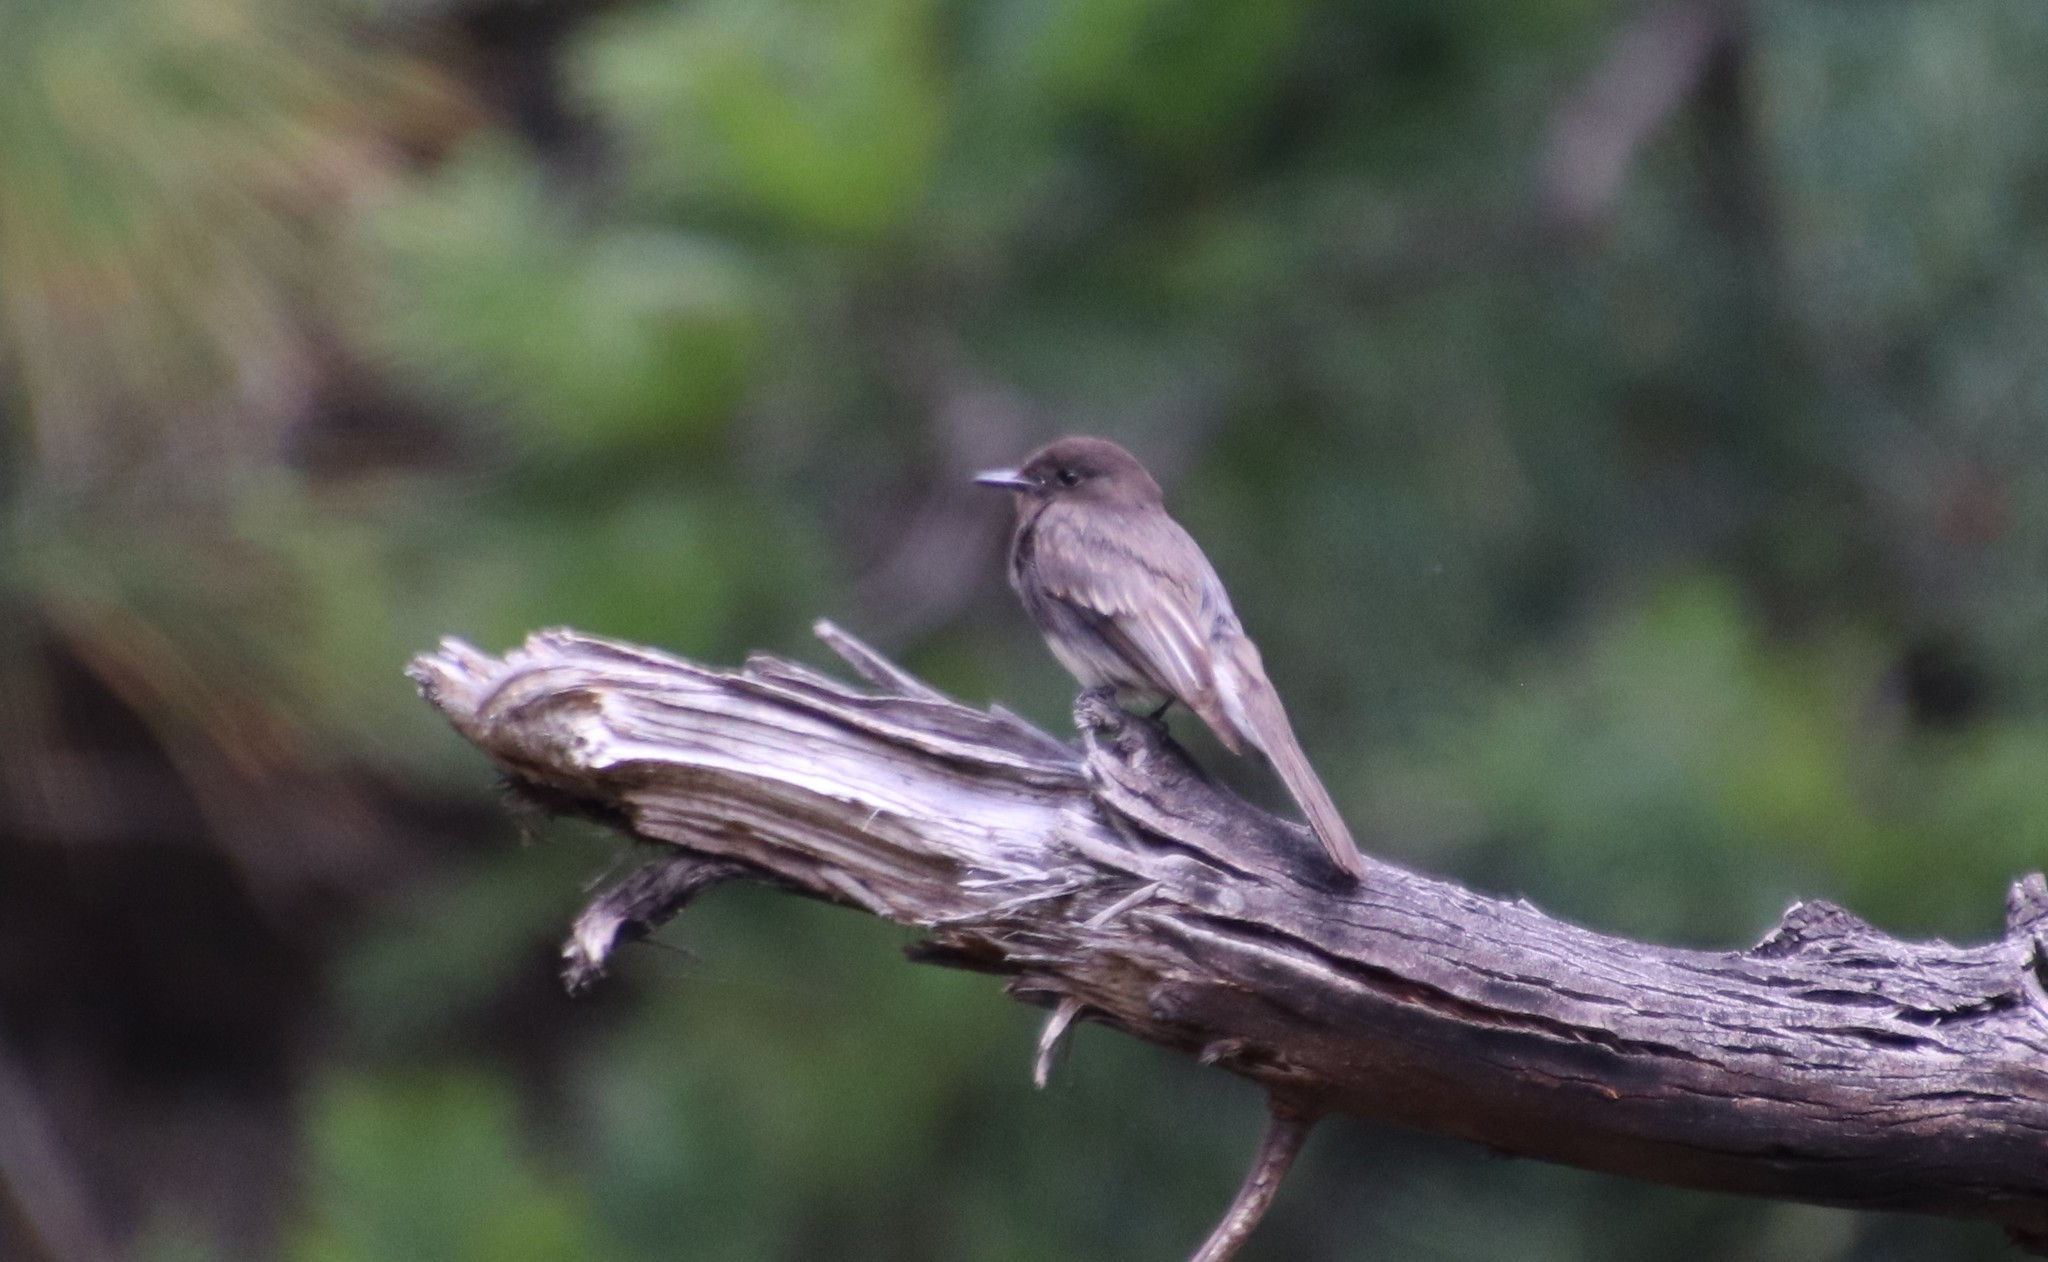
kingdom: Animalia
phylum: Chordata
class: Aves
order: Passeriformes
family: Tyrannidae
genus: Sayornis
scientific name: Sayornis nigricans
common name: Black phoebe
